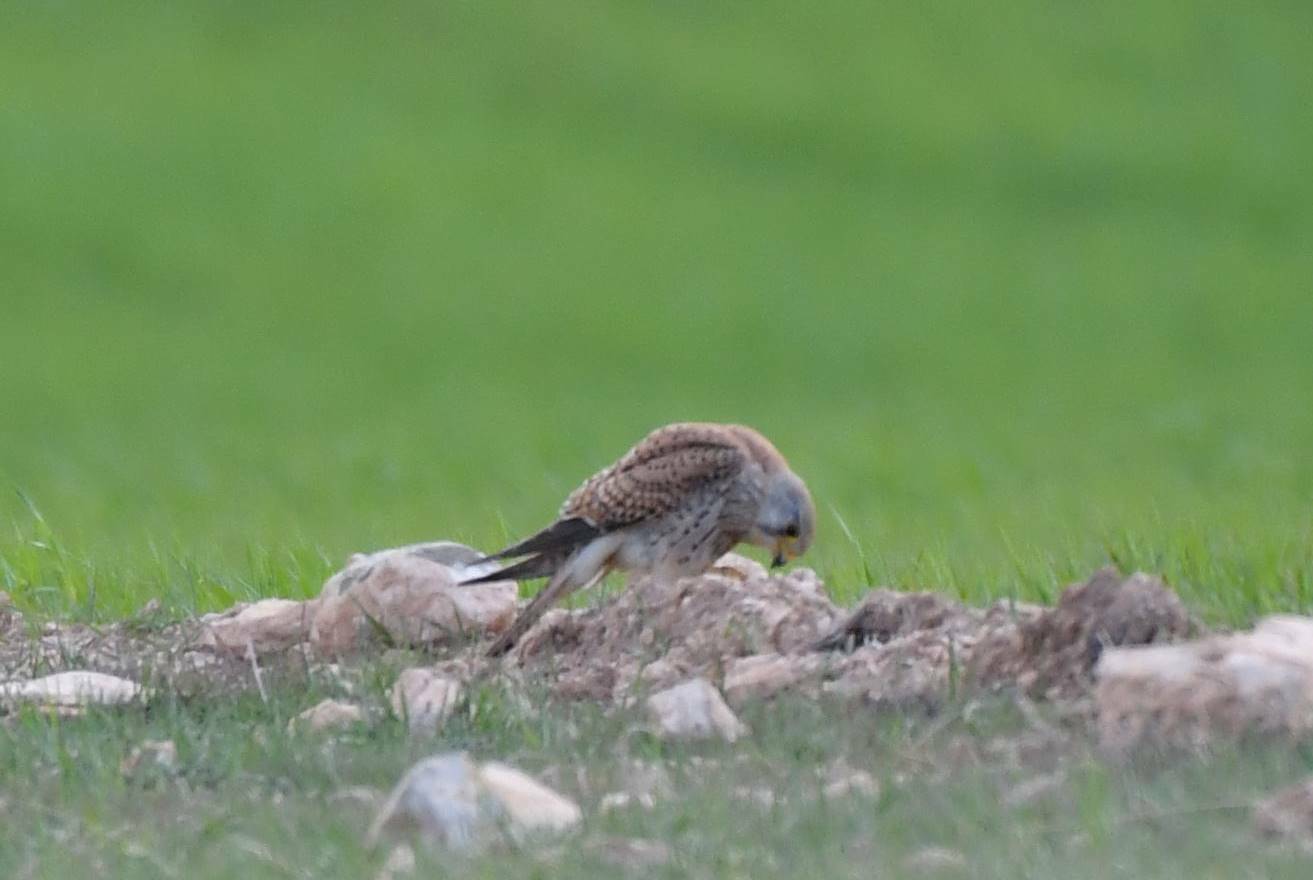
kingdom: Animalia
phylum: Chordata
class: Aves
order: Falconiformes
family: Falconidae
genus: Falco
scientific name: Falco tinnunculus
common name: Common kestrel
